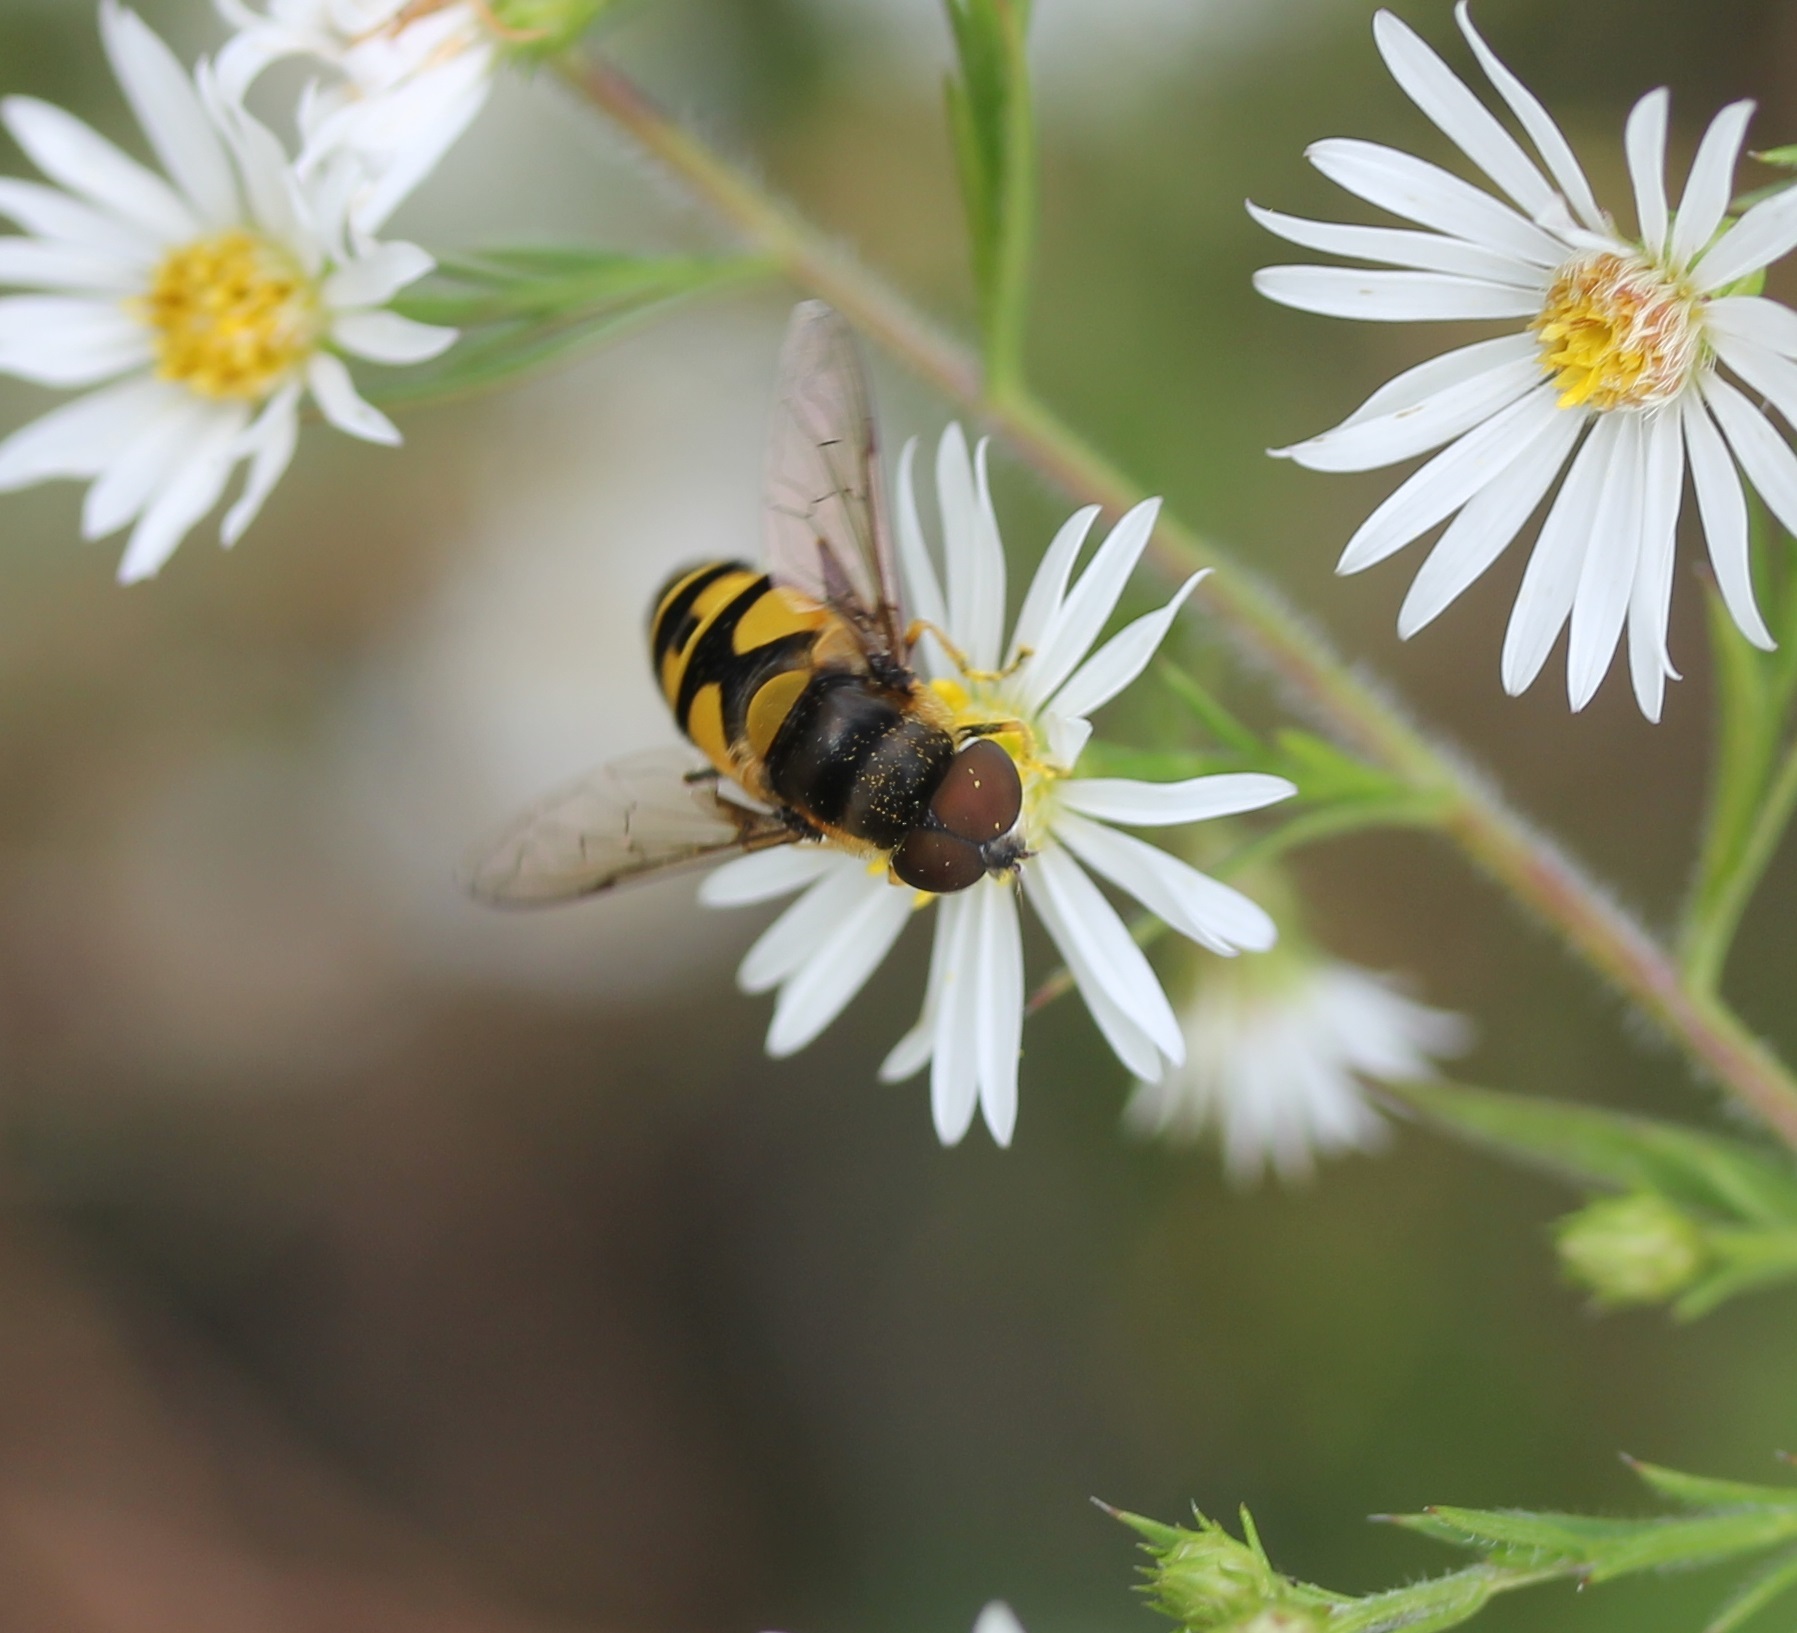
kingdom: Animalia
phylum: Arthropoda
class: Insecta
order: Diptera
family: Syrphidae
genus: Eristalis
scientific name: Eristalis transversa
